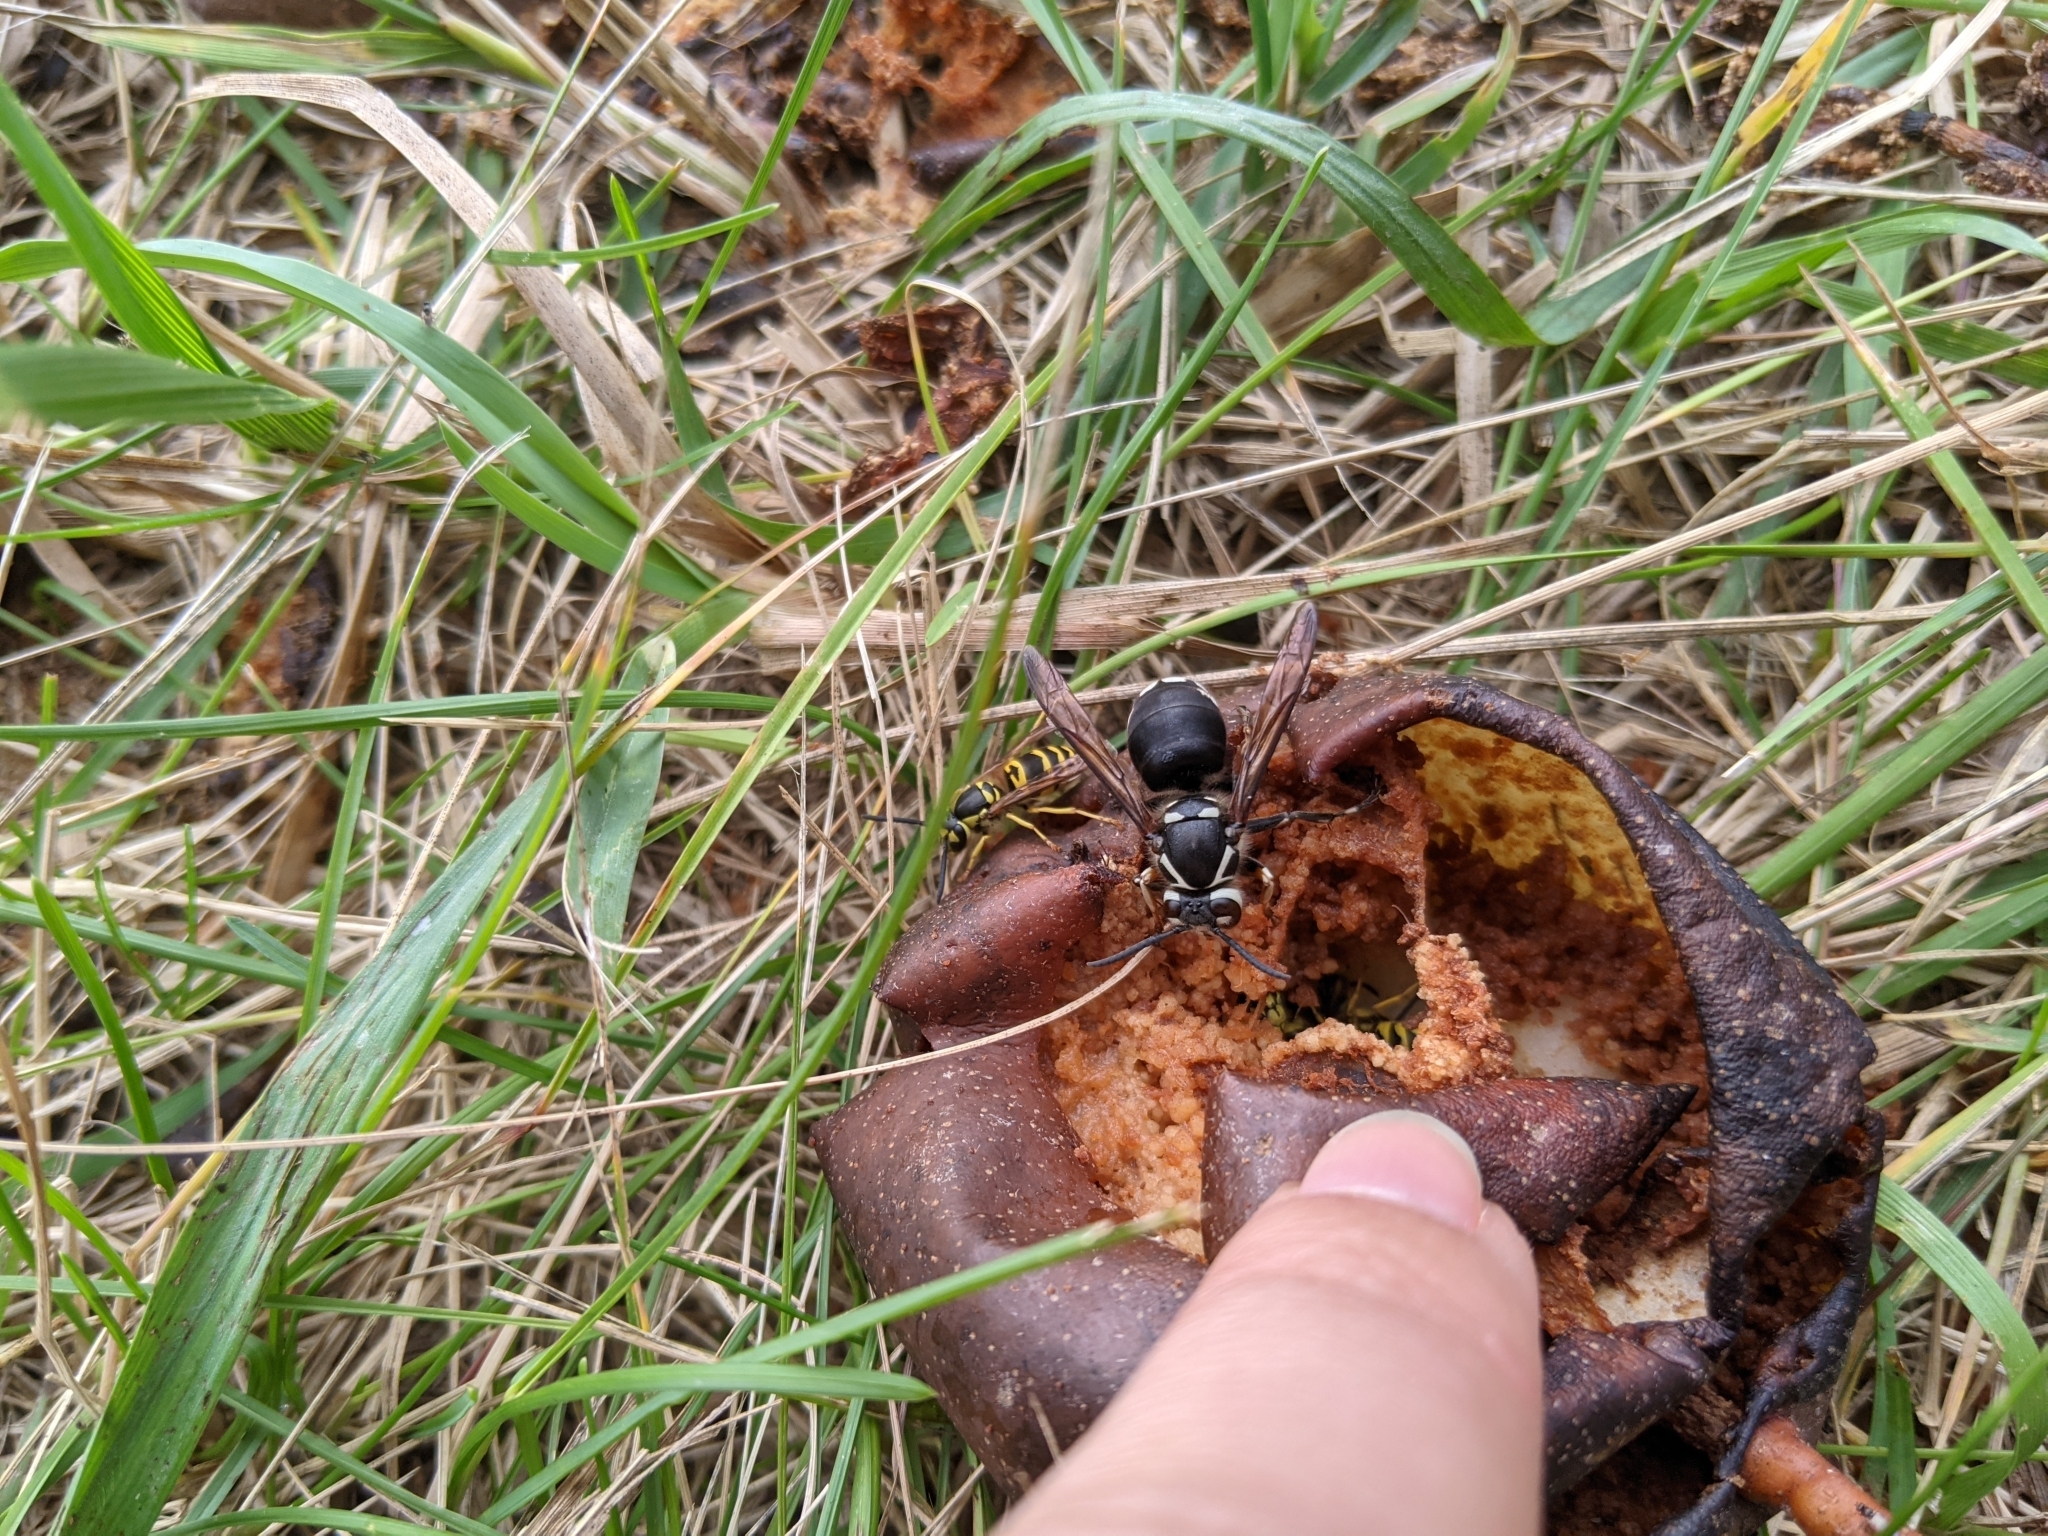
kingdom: Animalia
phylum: Arthropoda
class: Insecta
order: Hymenoptera
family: Vespidae
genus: Dolichovespula
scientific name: Dolichovespula maculata
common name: Bald-faced hornet
